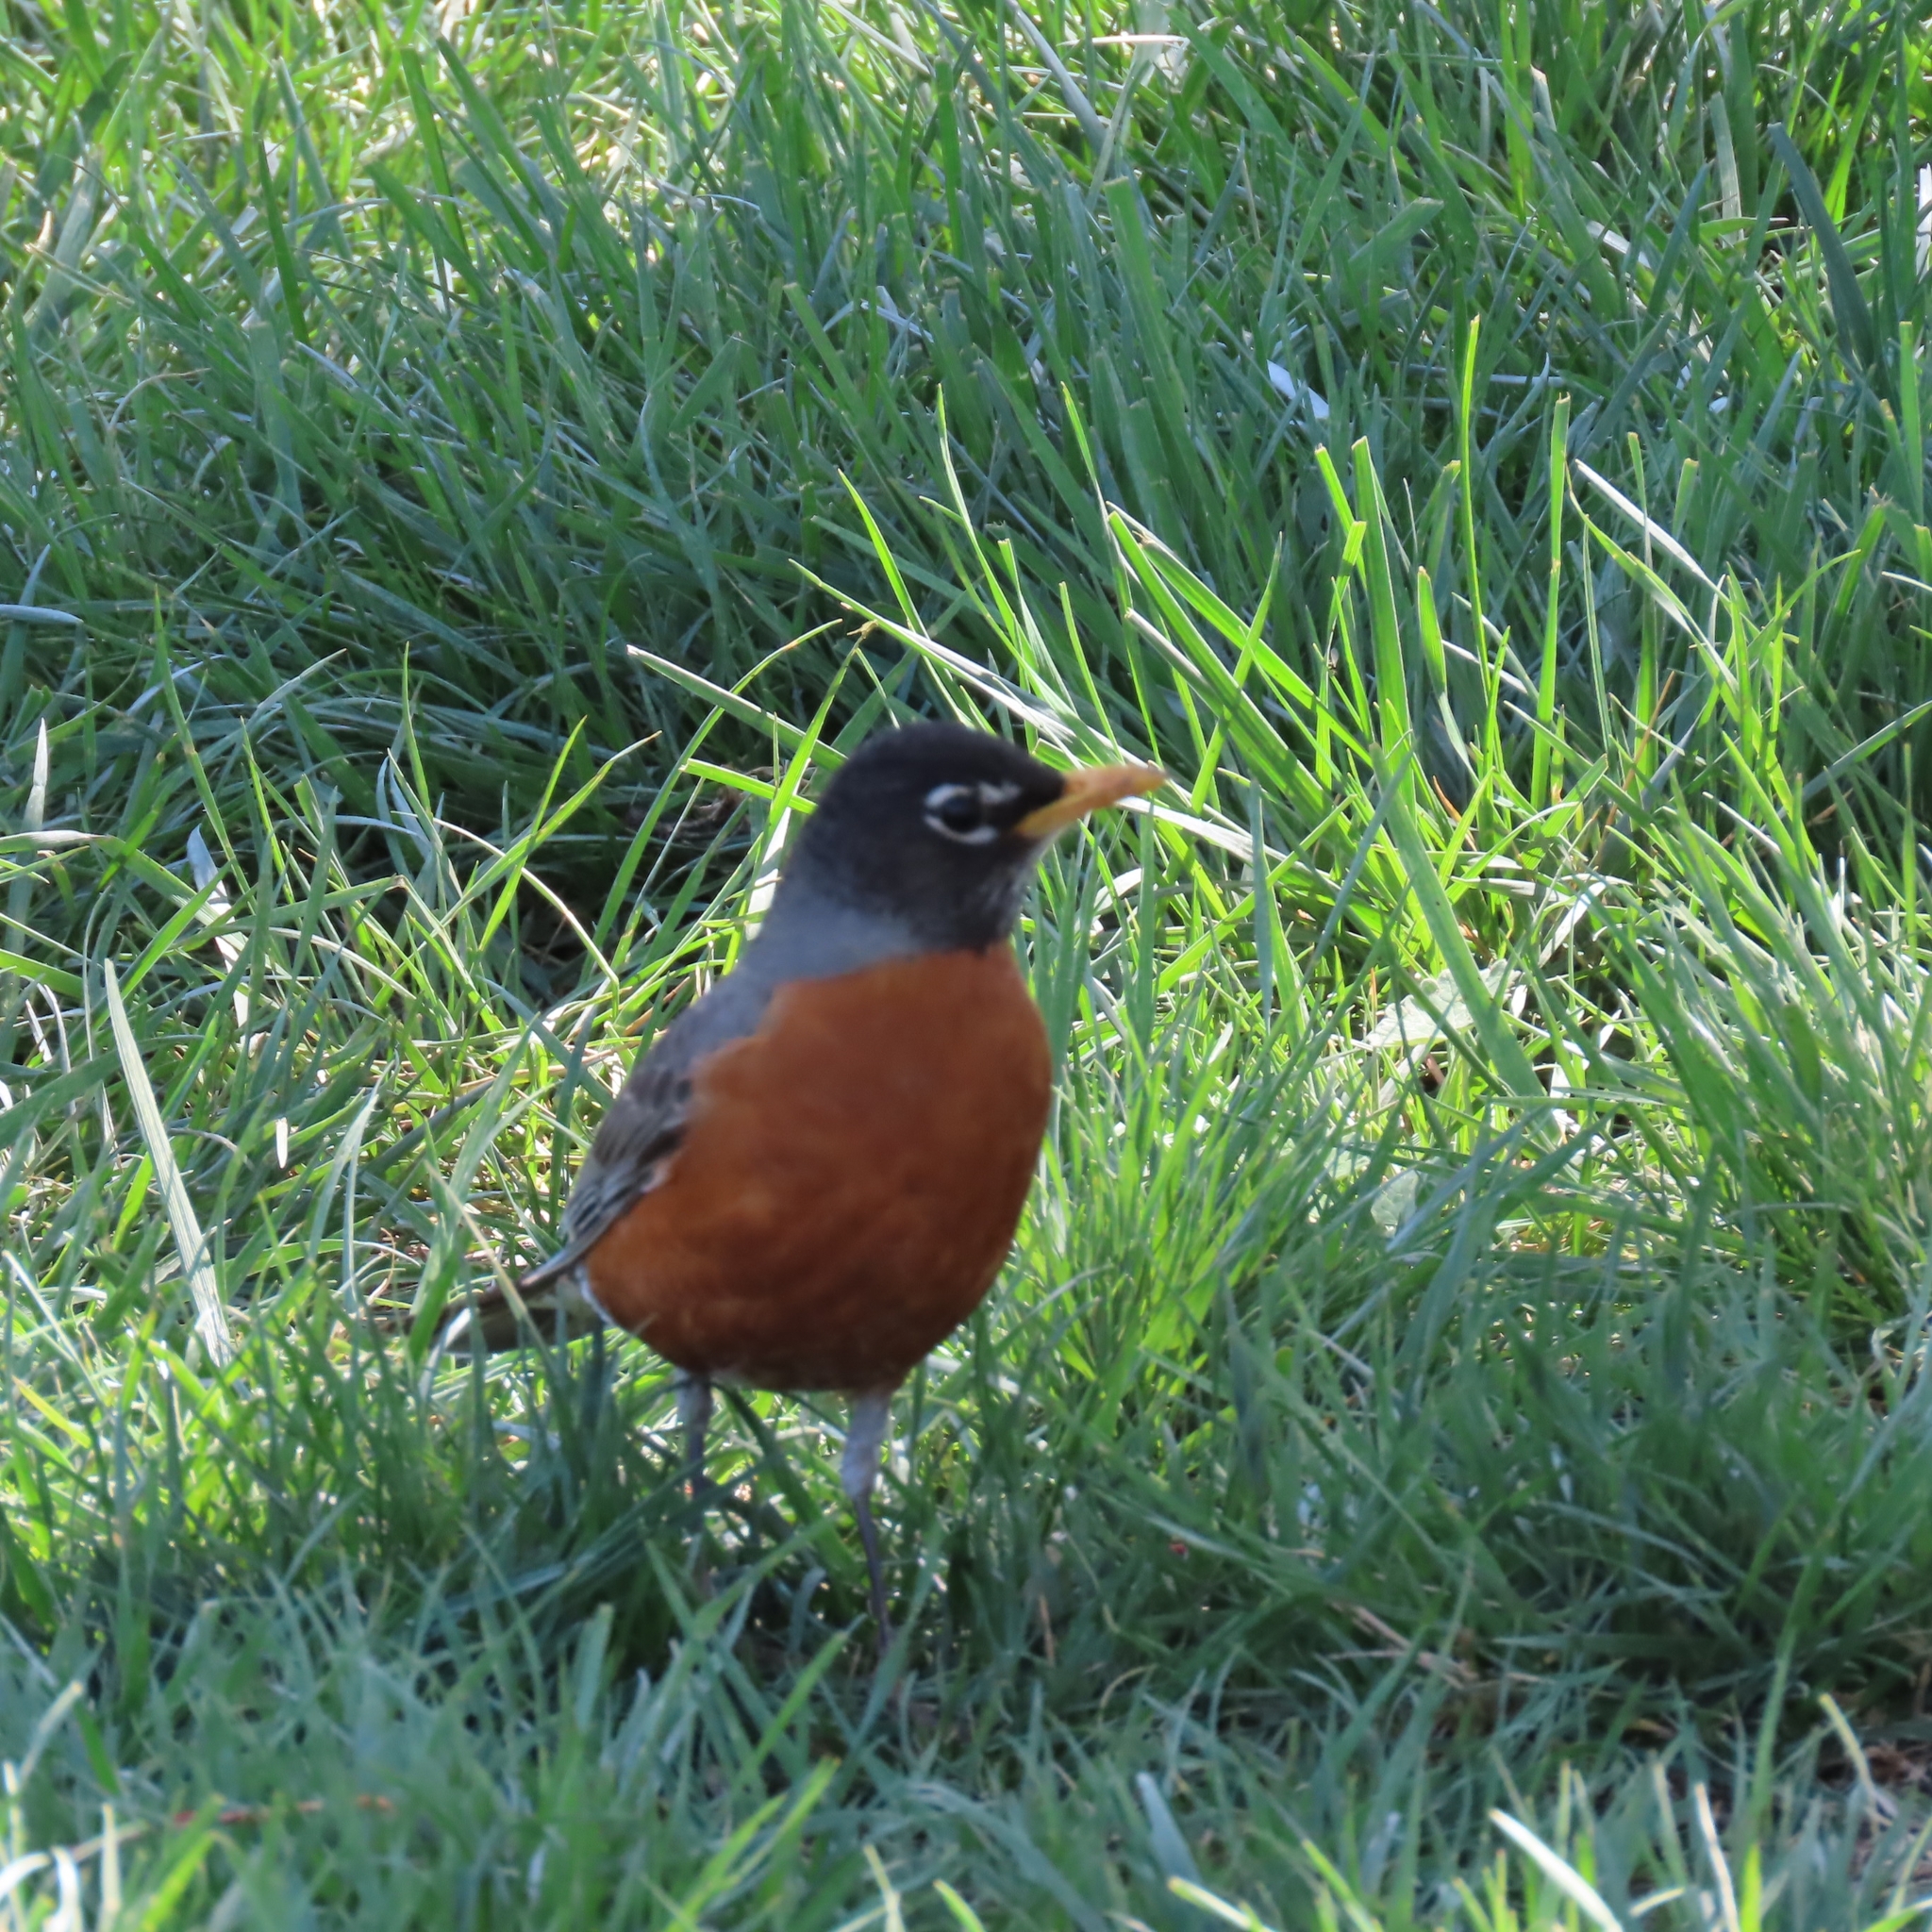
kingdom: Animalia
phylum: Chordata
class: Aves
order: Passeriformes
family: Turdidae
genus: Turdus
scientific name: Turdus migratorius
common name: American robin
